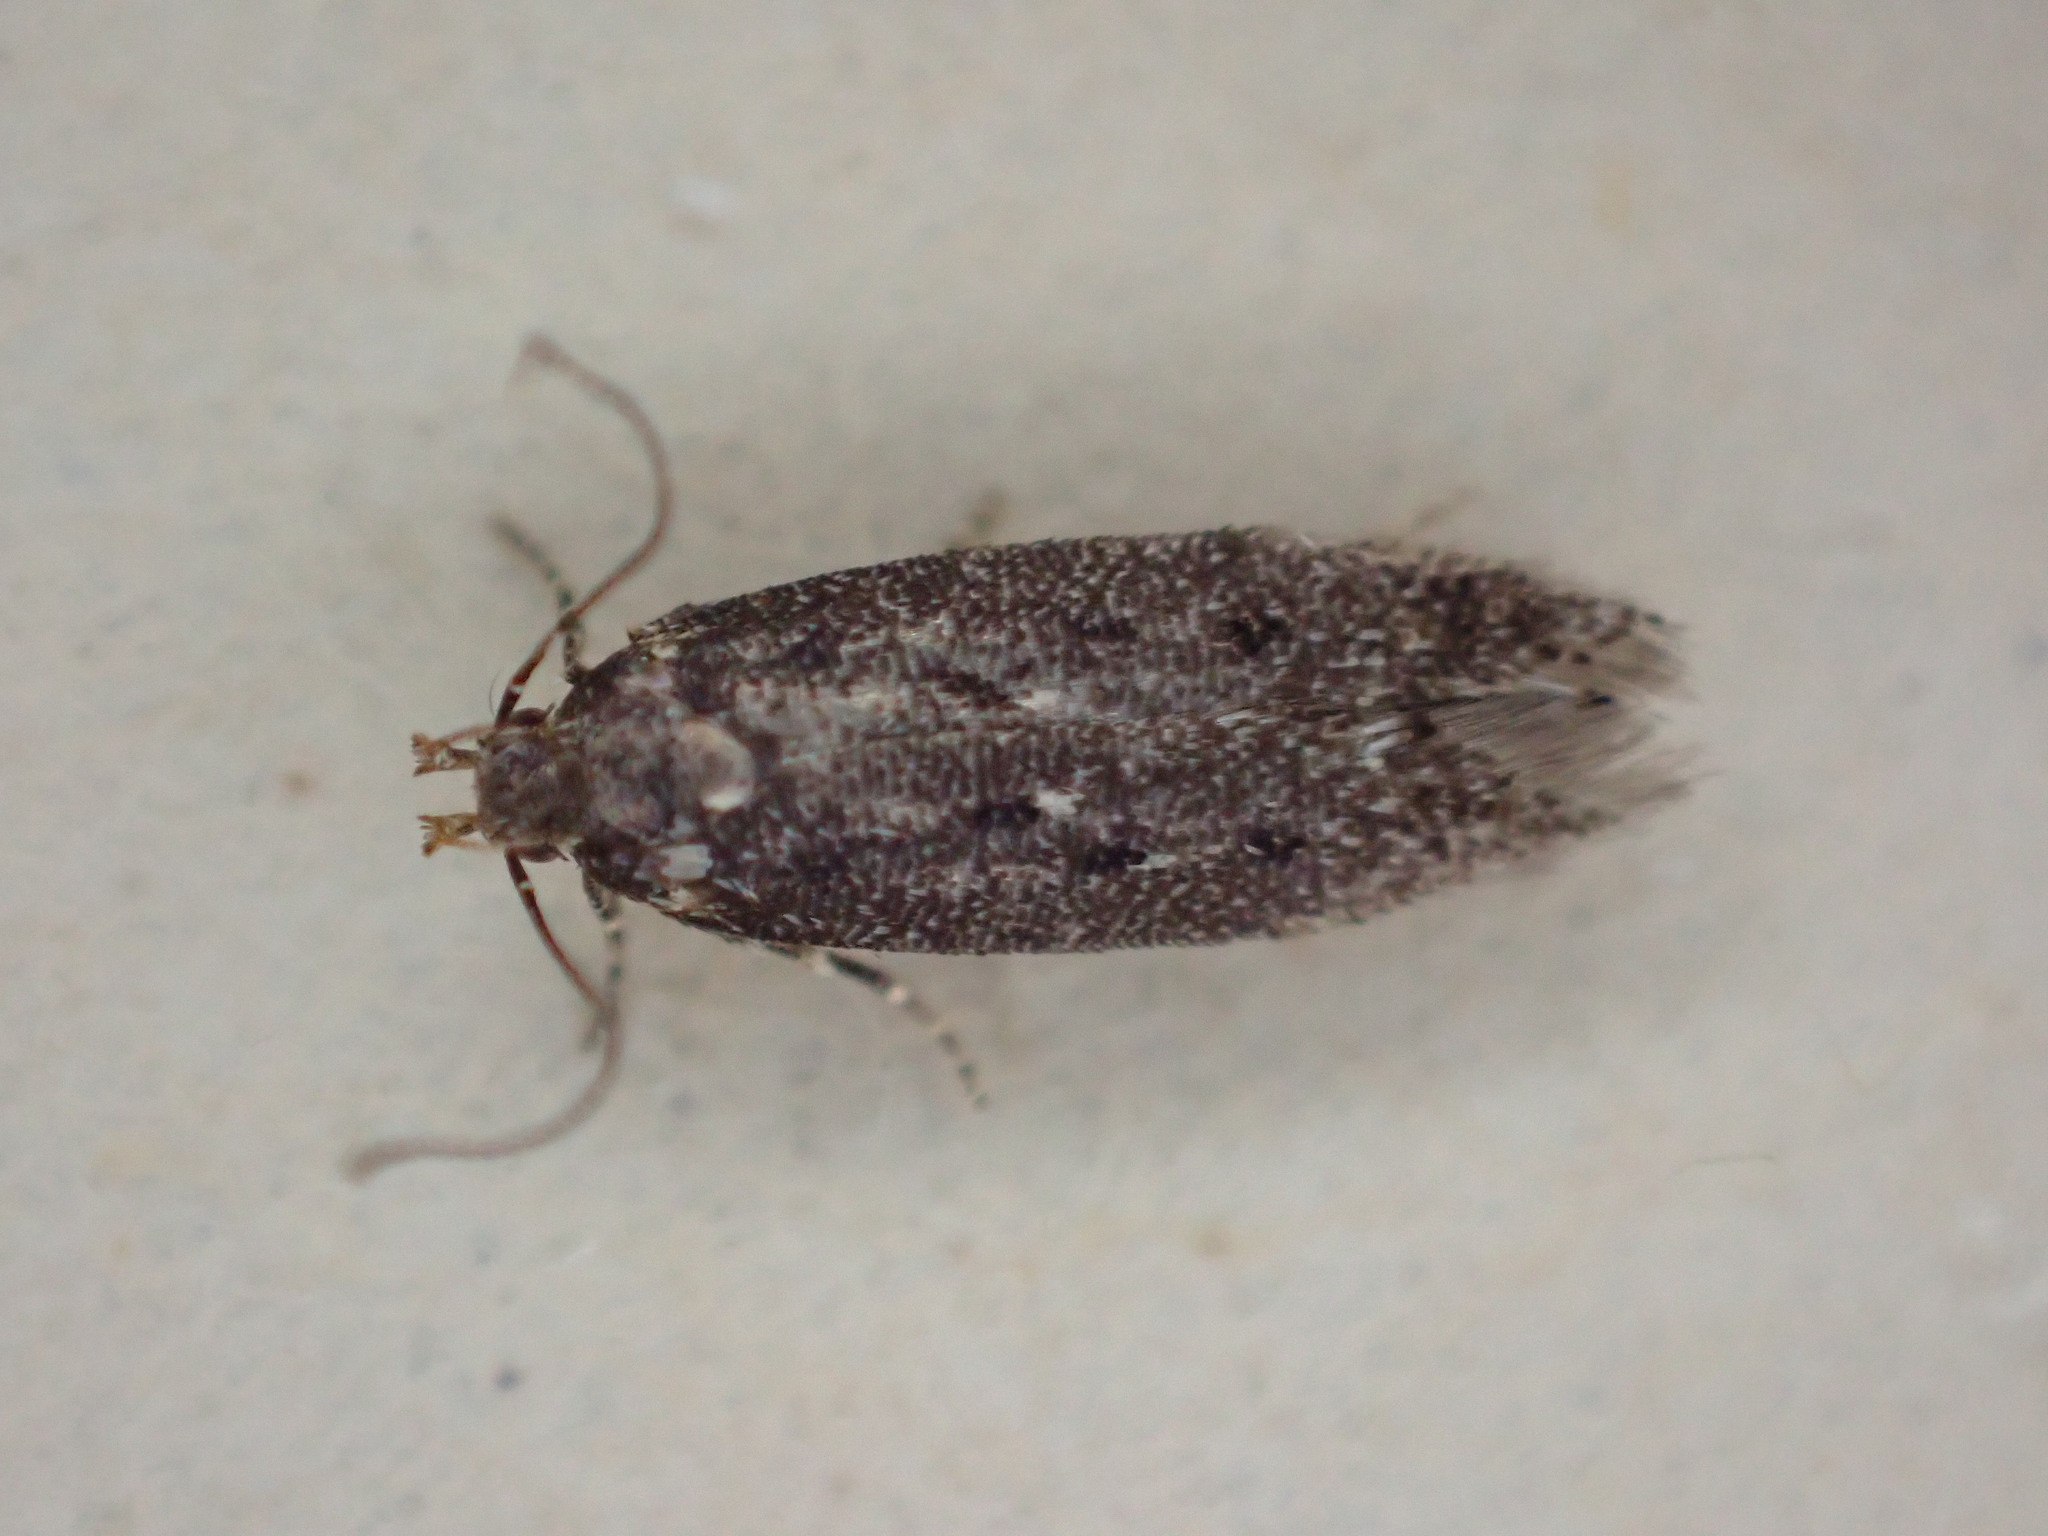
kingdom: Animalia
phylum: Arthropoda
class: Insecta
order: Lepidoptera
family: Gelechiidae
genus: Bryotropha
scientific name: Bryotropha affinis
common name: Dark groundling
